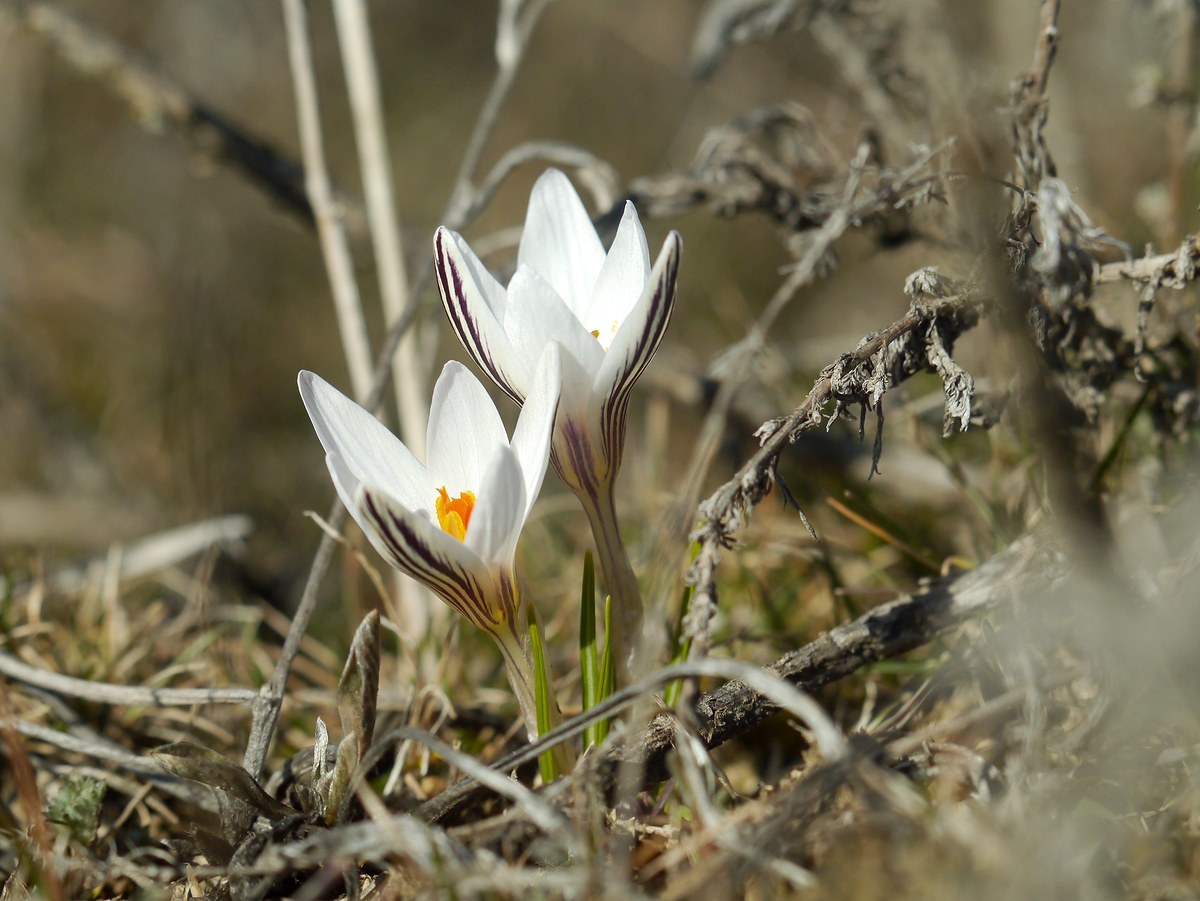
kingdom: Plantae
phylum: Tracheophyta
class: Liliopsida
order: Asparagales
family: Iridaceae
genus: Crocus
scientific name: Crocus reticulatus
